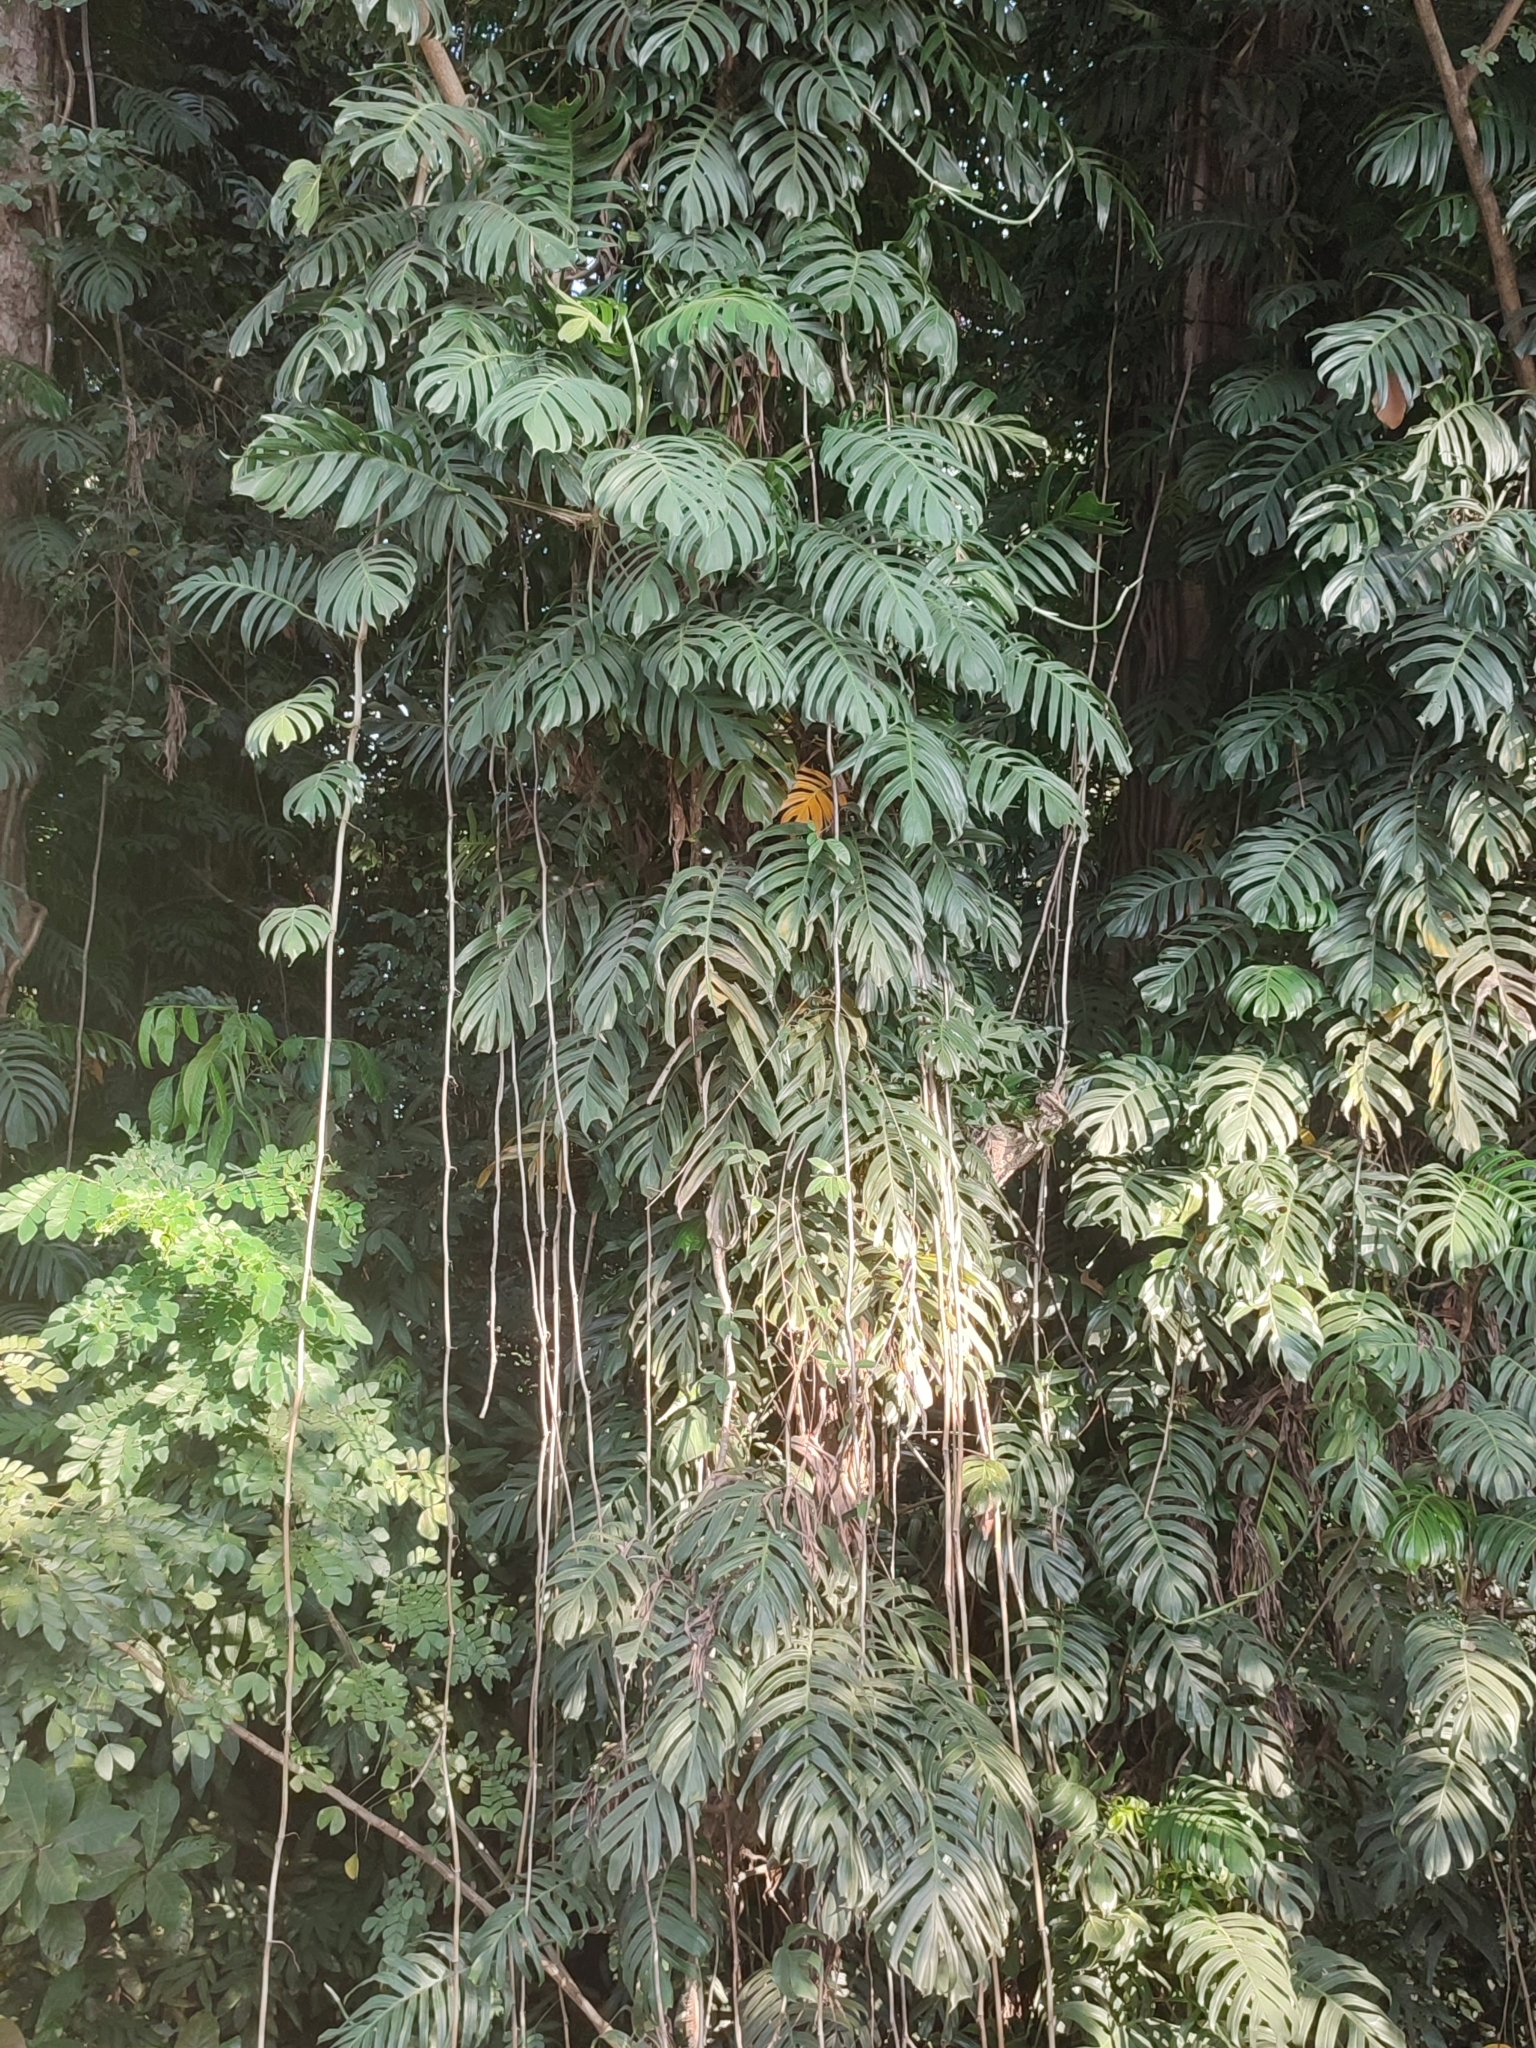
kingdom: Plantae
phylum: Tracheophyta
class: Liliopsida
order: Alismatales
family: Araceae
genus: Epipremnum
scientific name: Epipremnum pinnatum
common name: Centipede tongavine
